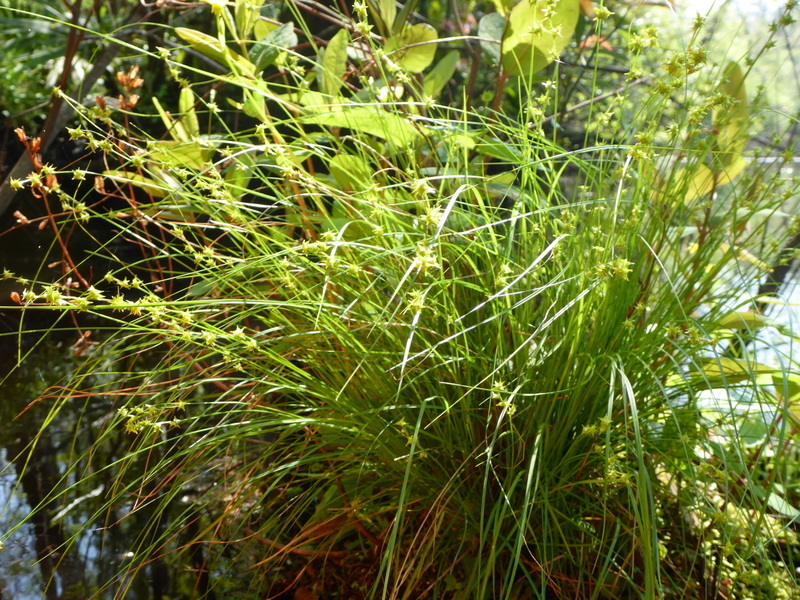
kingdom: Plantae
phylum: Tracheophyta
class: Liliopsida
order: Poales
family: Cyperaceae
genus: Carex
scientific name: Carex atlantica
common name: Atlantic sedge
